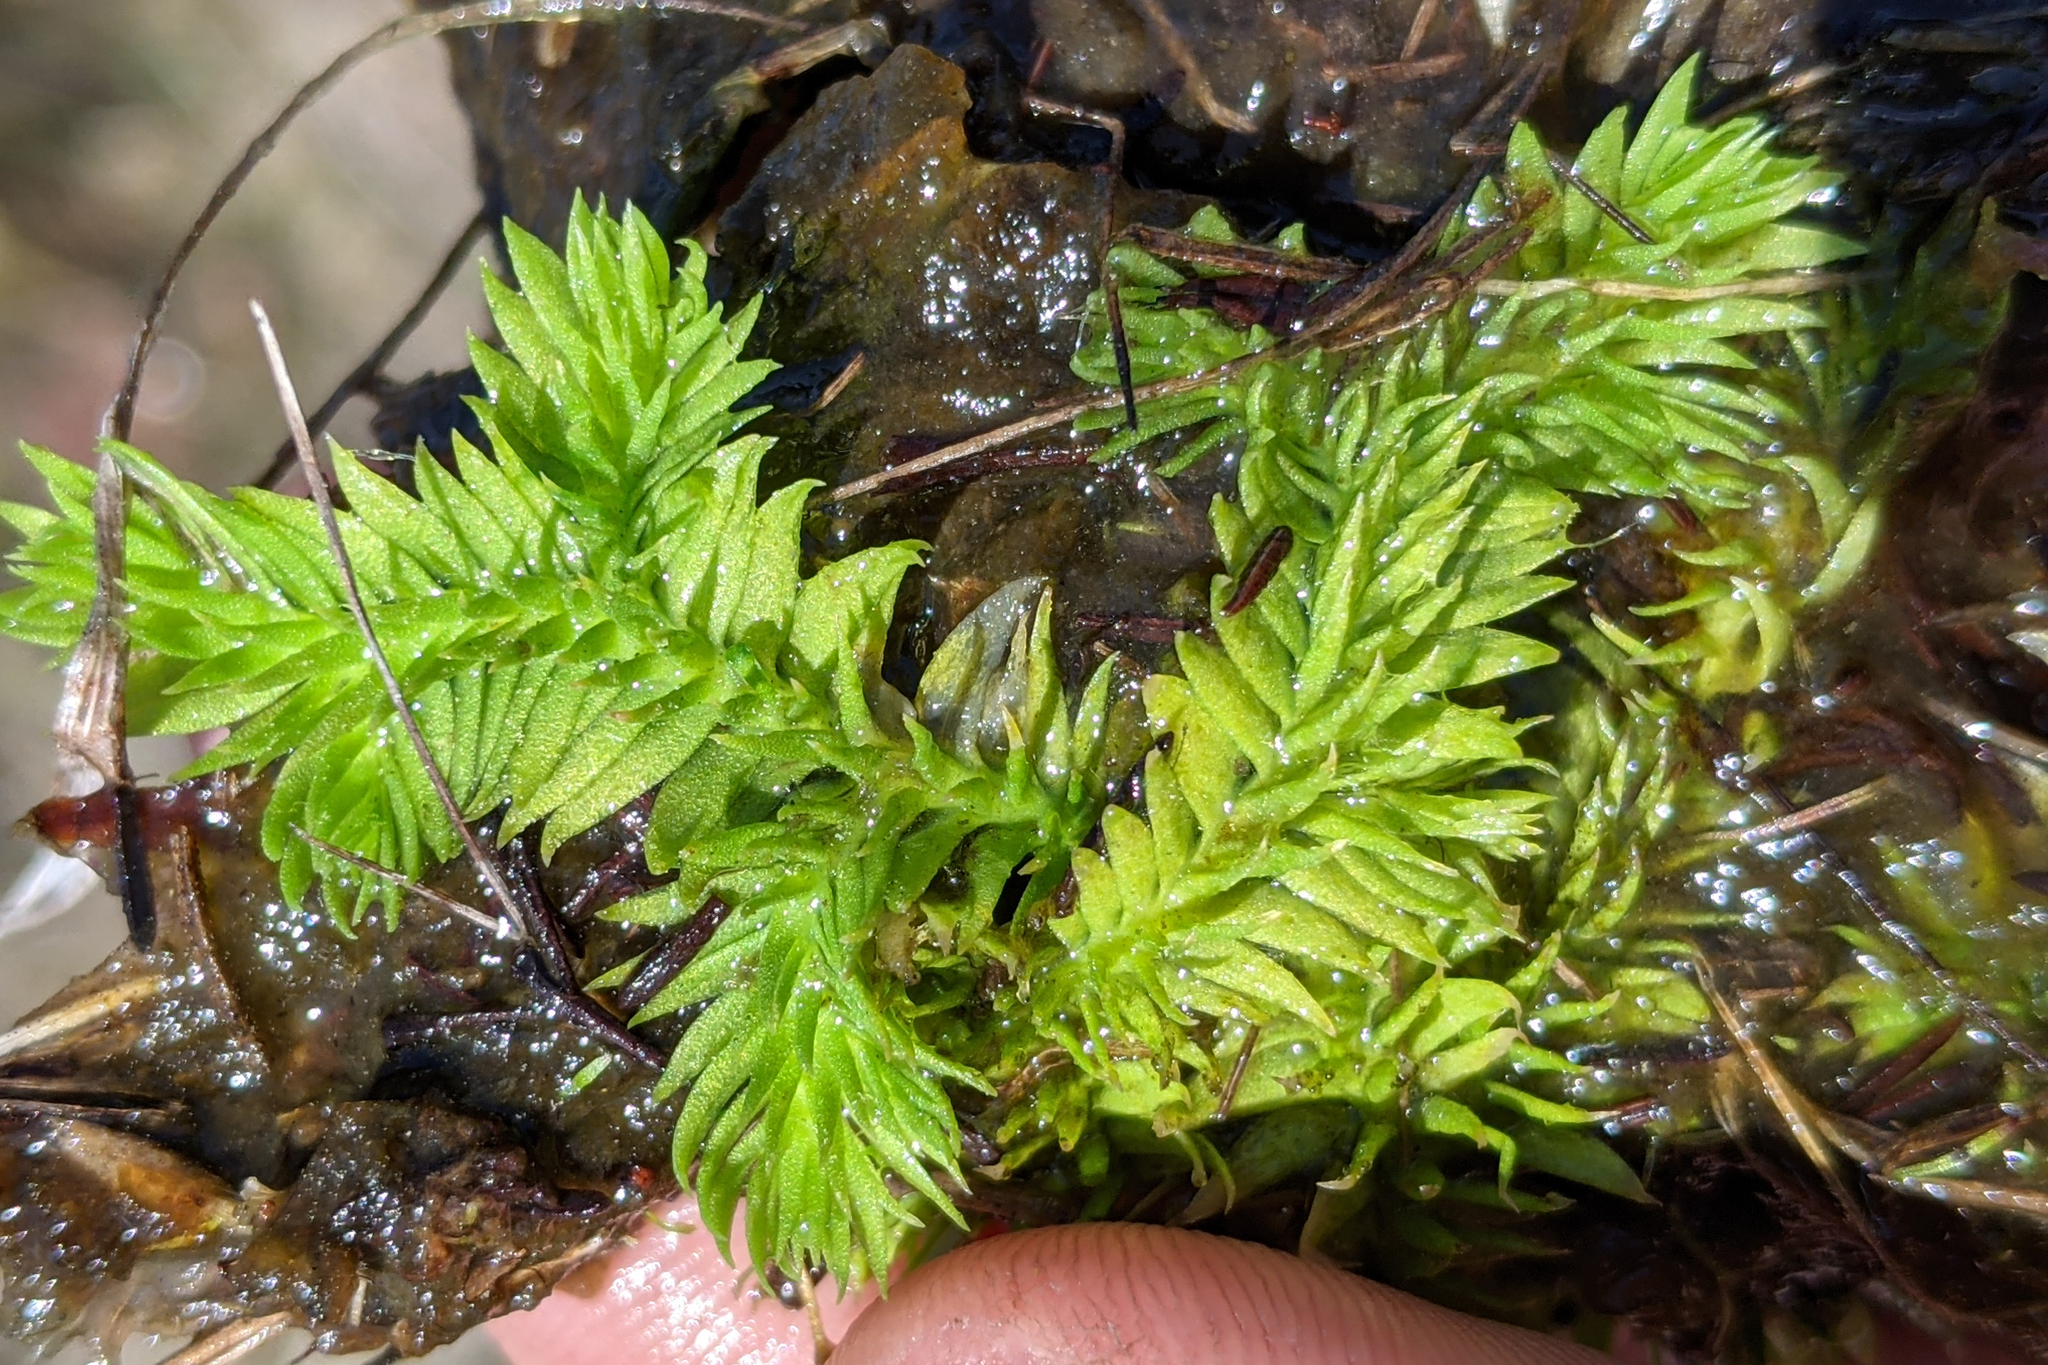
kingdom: Plantae
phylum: Tracheophyta
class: Lycopodiopsida
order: Lycopodiales
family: Lycopodiaceae
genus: Pseudolycopodiella
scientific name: Pseudolycopodiella caroliniana
